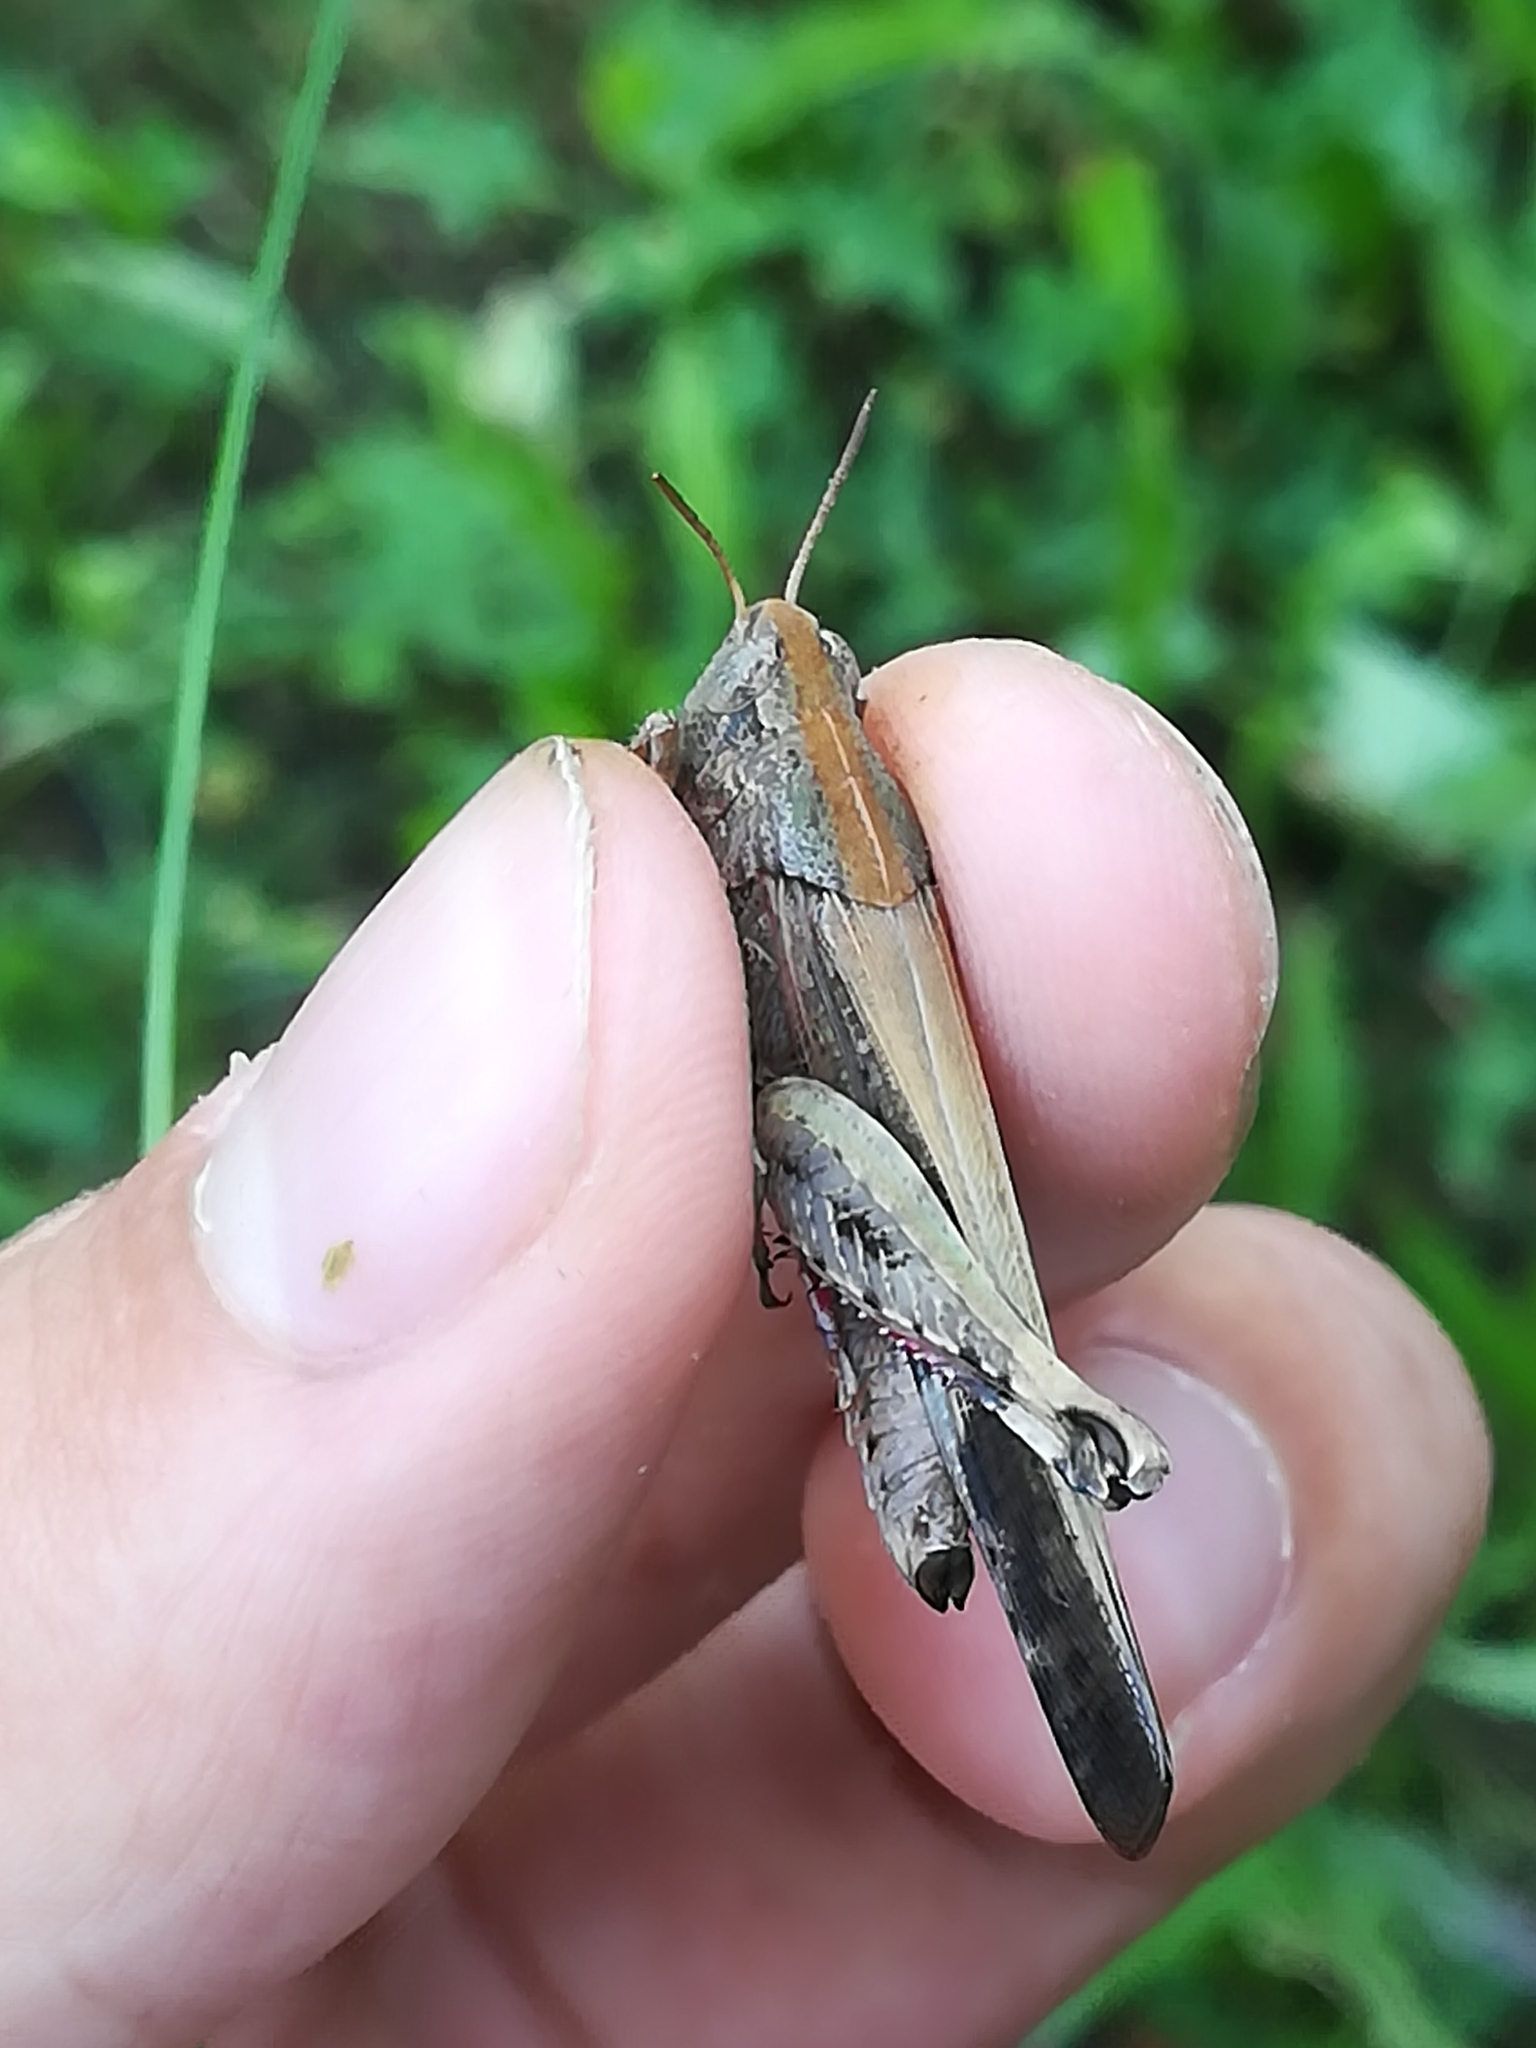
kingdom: Animalia
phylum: Arthropoda
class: Insecta
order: Orthoptera
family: Acrididae
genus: Aiolopus
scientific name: Aiolopus strepens
